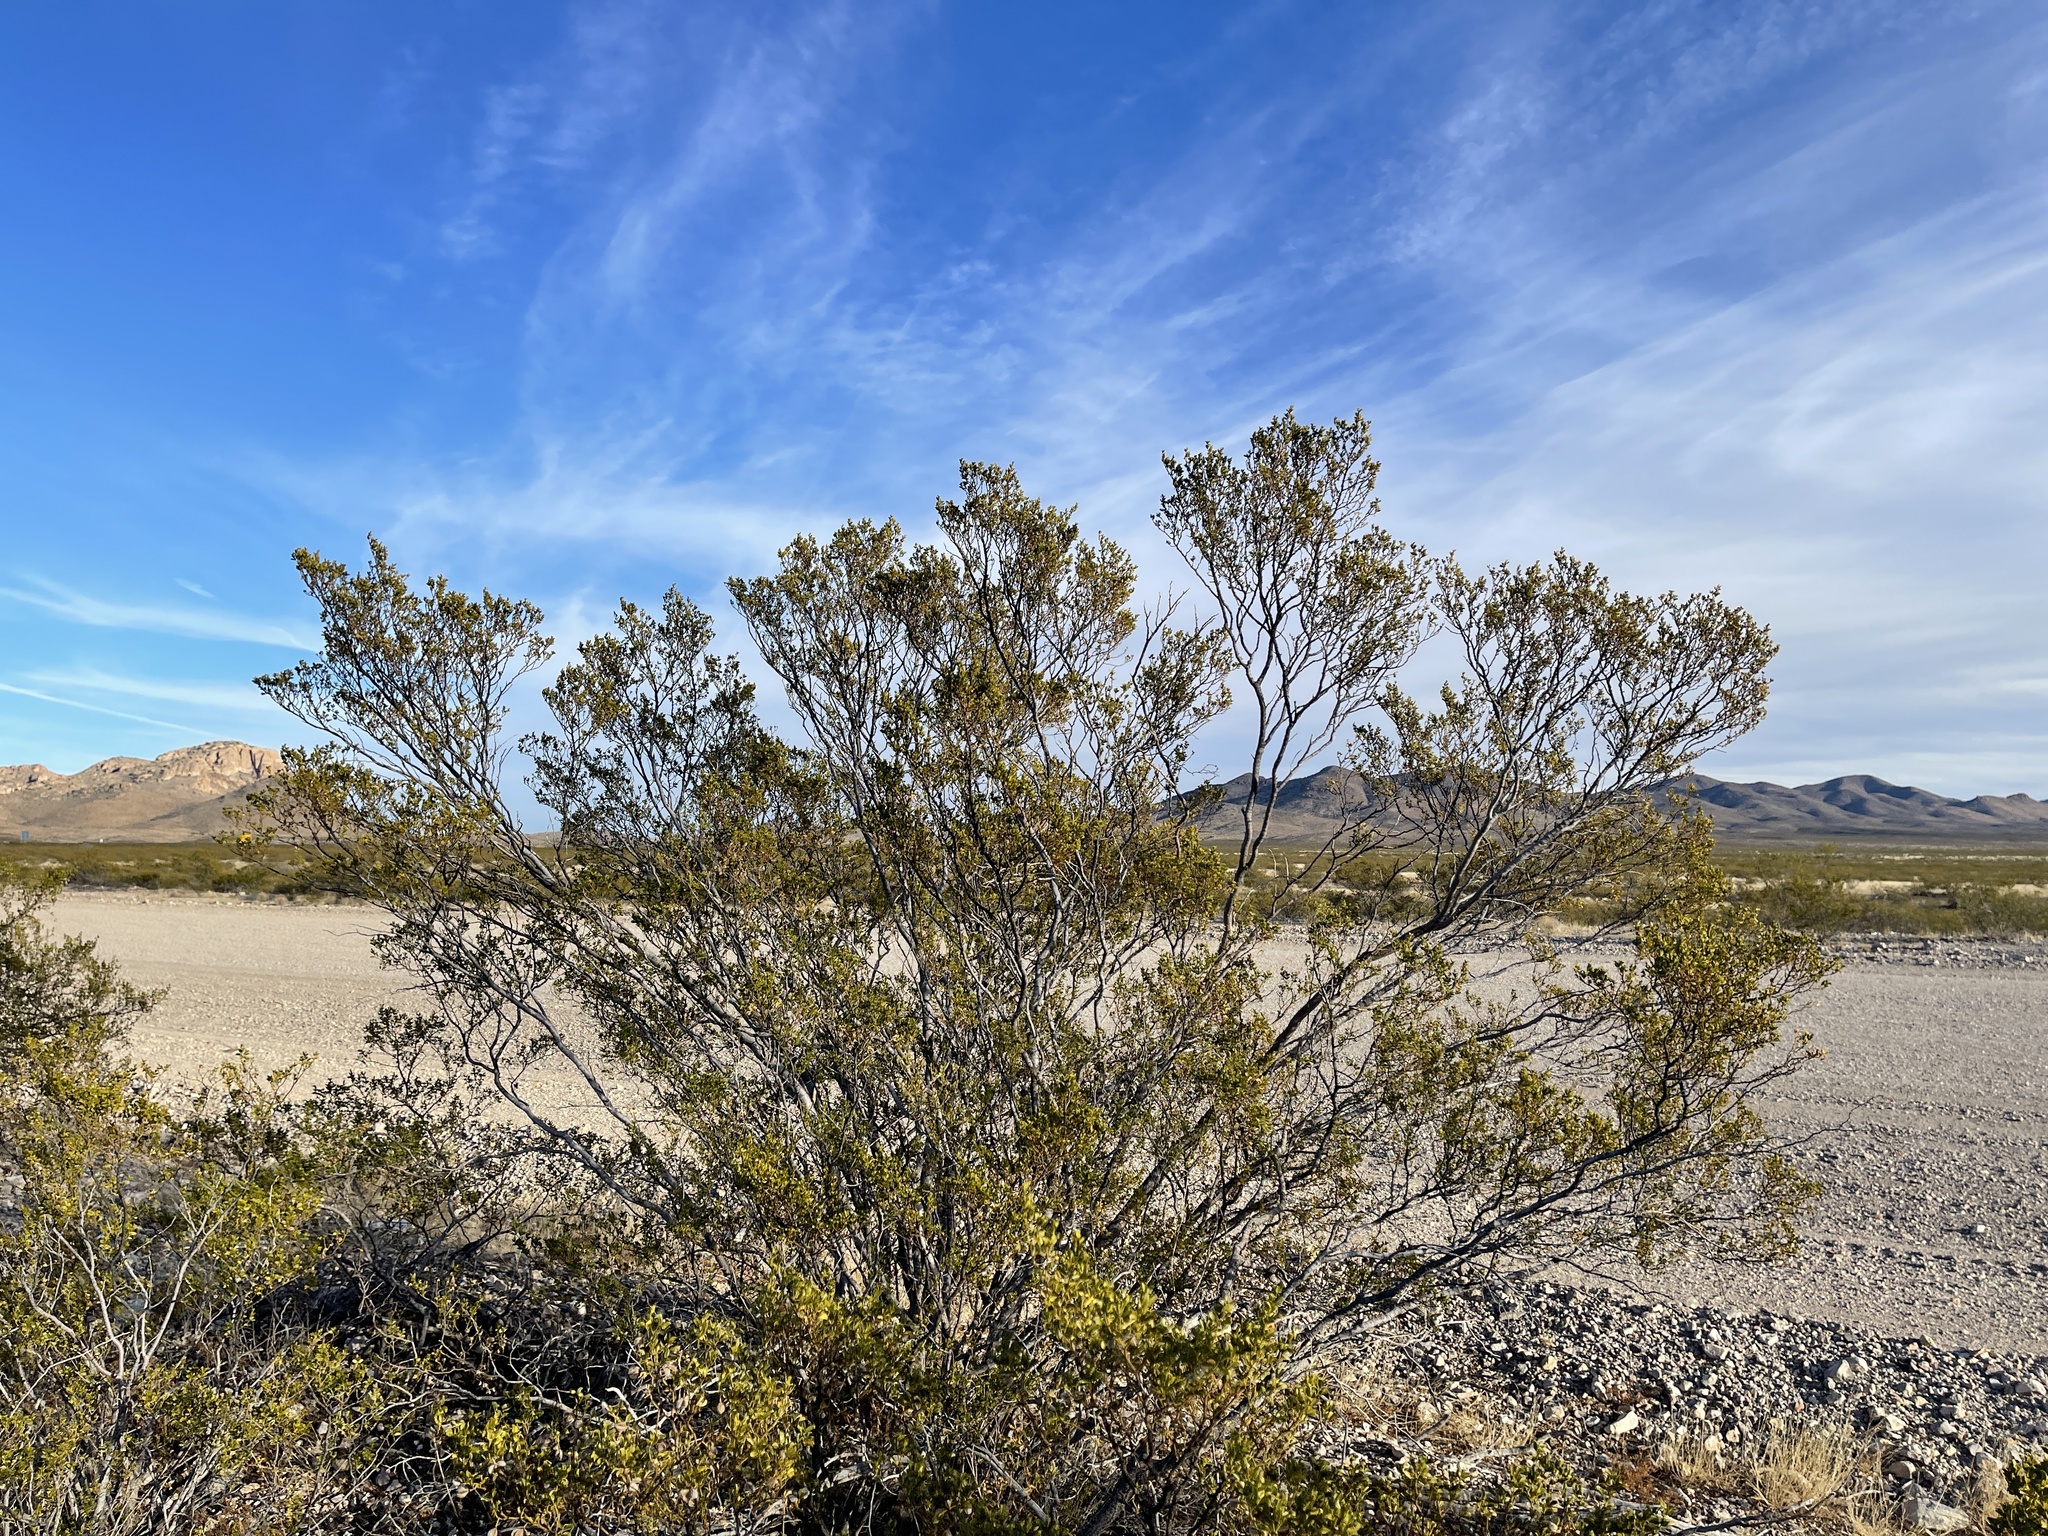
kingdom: Plantae
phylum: Tracheophyta
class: Magnoliopsida
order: Zygophyllales
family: Zygophyllaceae
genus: Larrea
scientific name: Larrea tridentata
